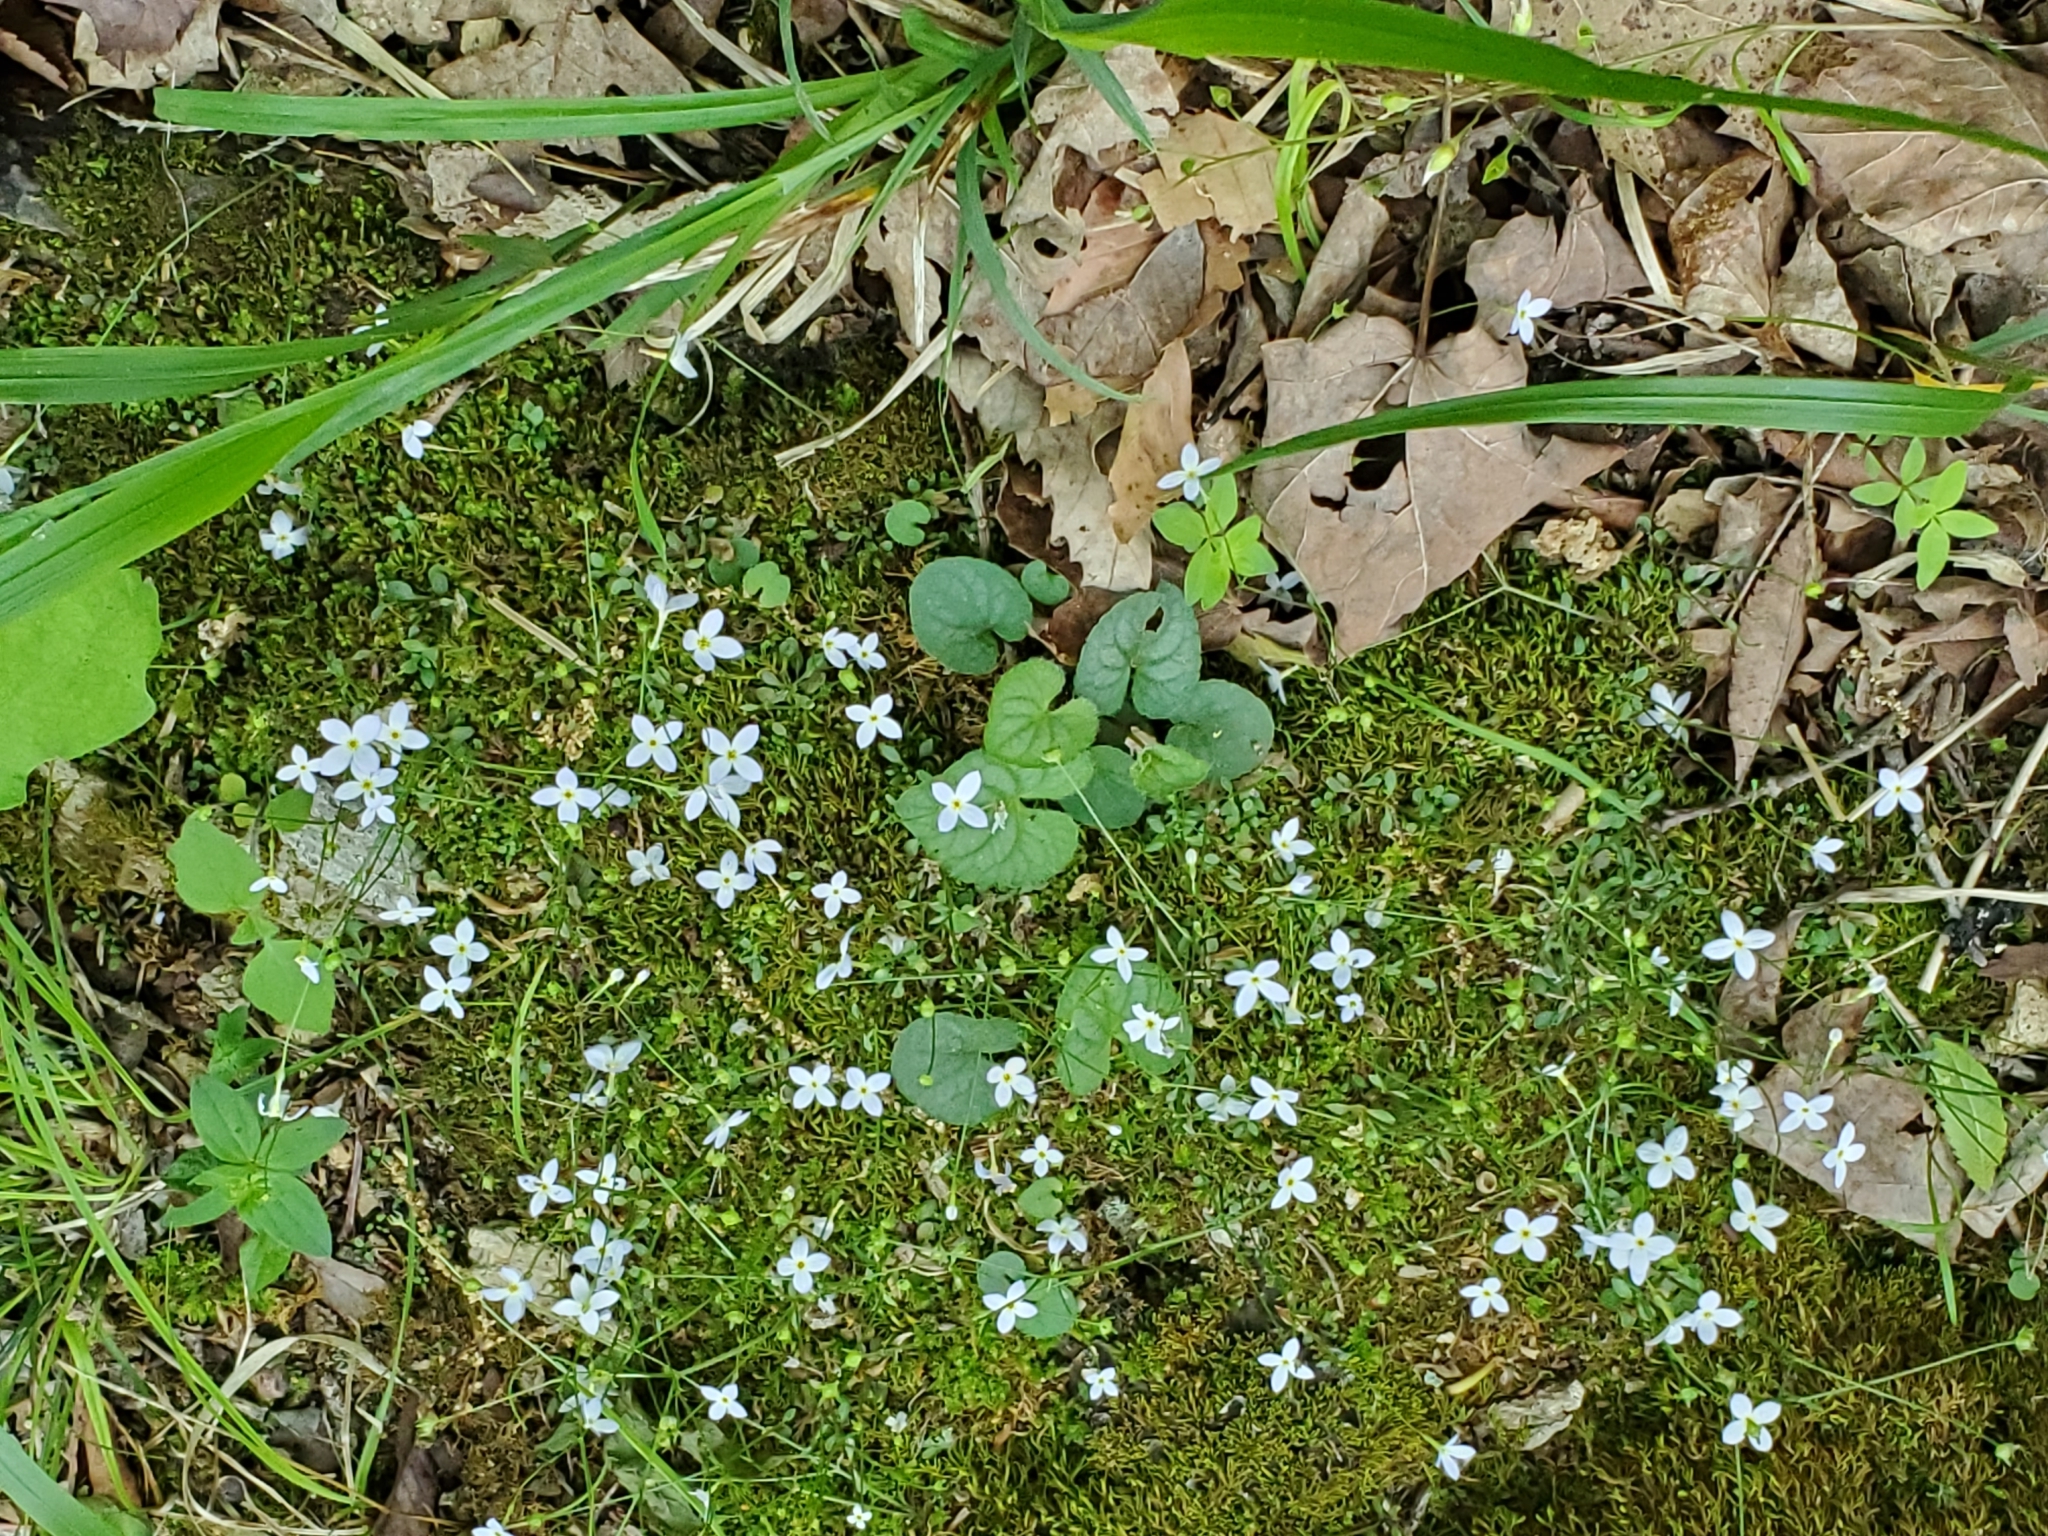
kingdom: Plantae
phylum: Tracheophyta
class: Magnoliopsida
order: Gentianales
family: Rubiaceae
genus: Houstonia
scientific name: Houstonia caerulea
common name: Bluets
